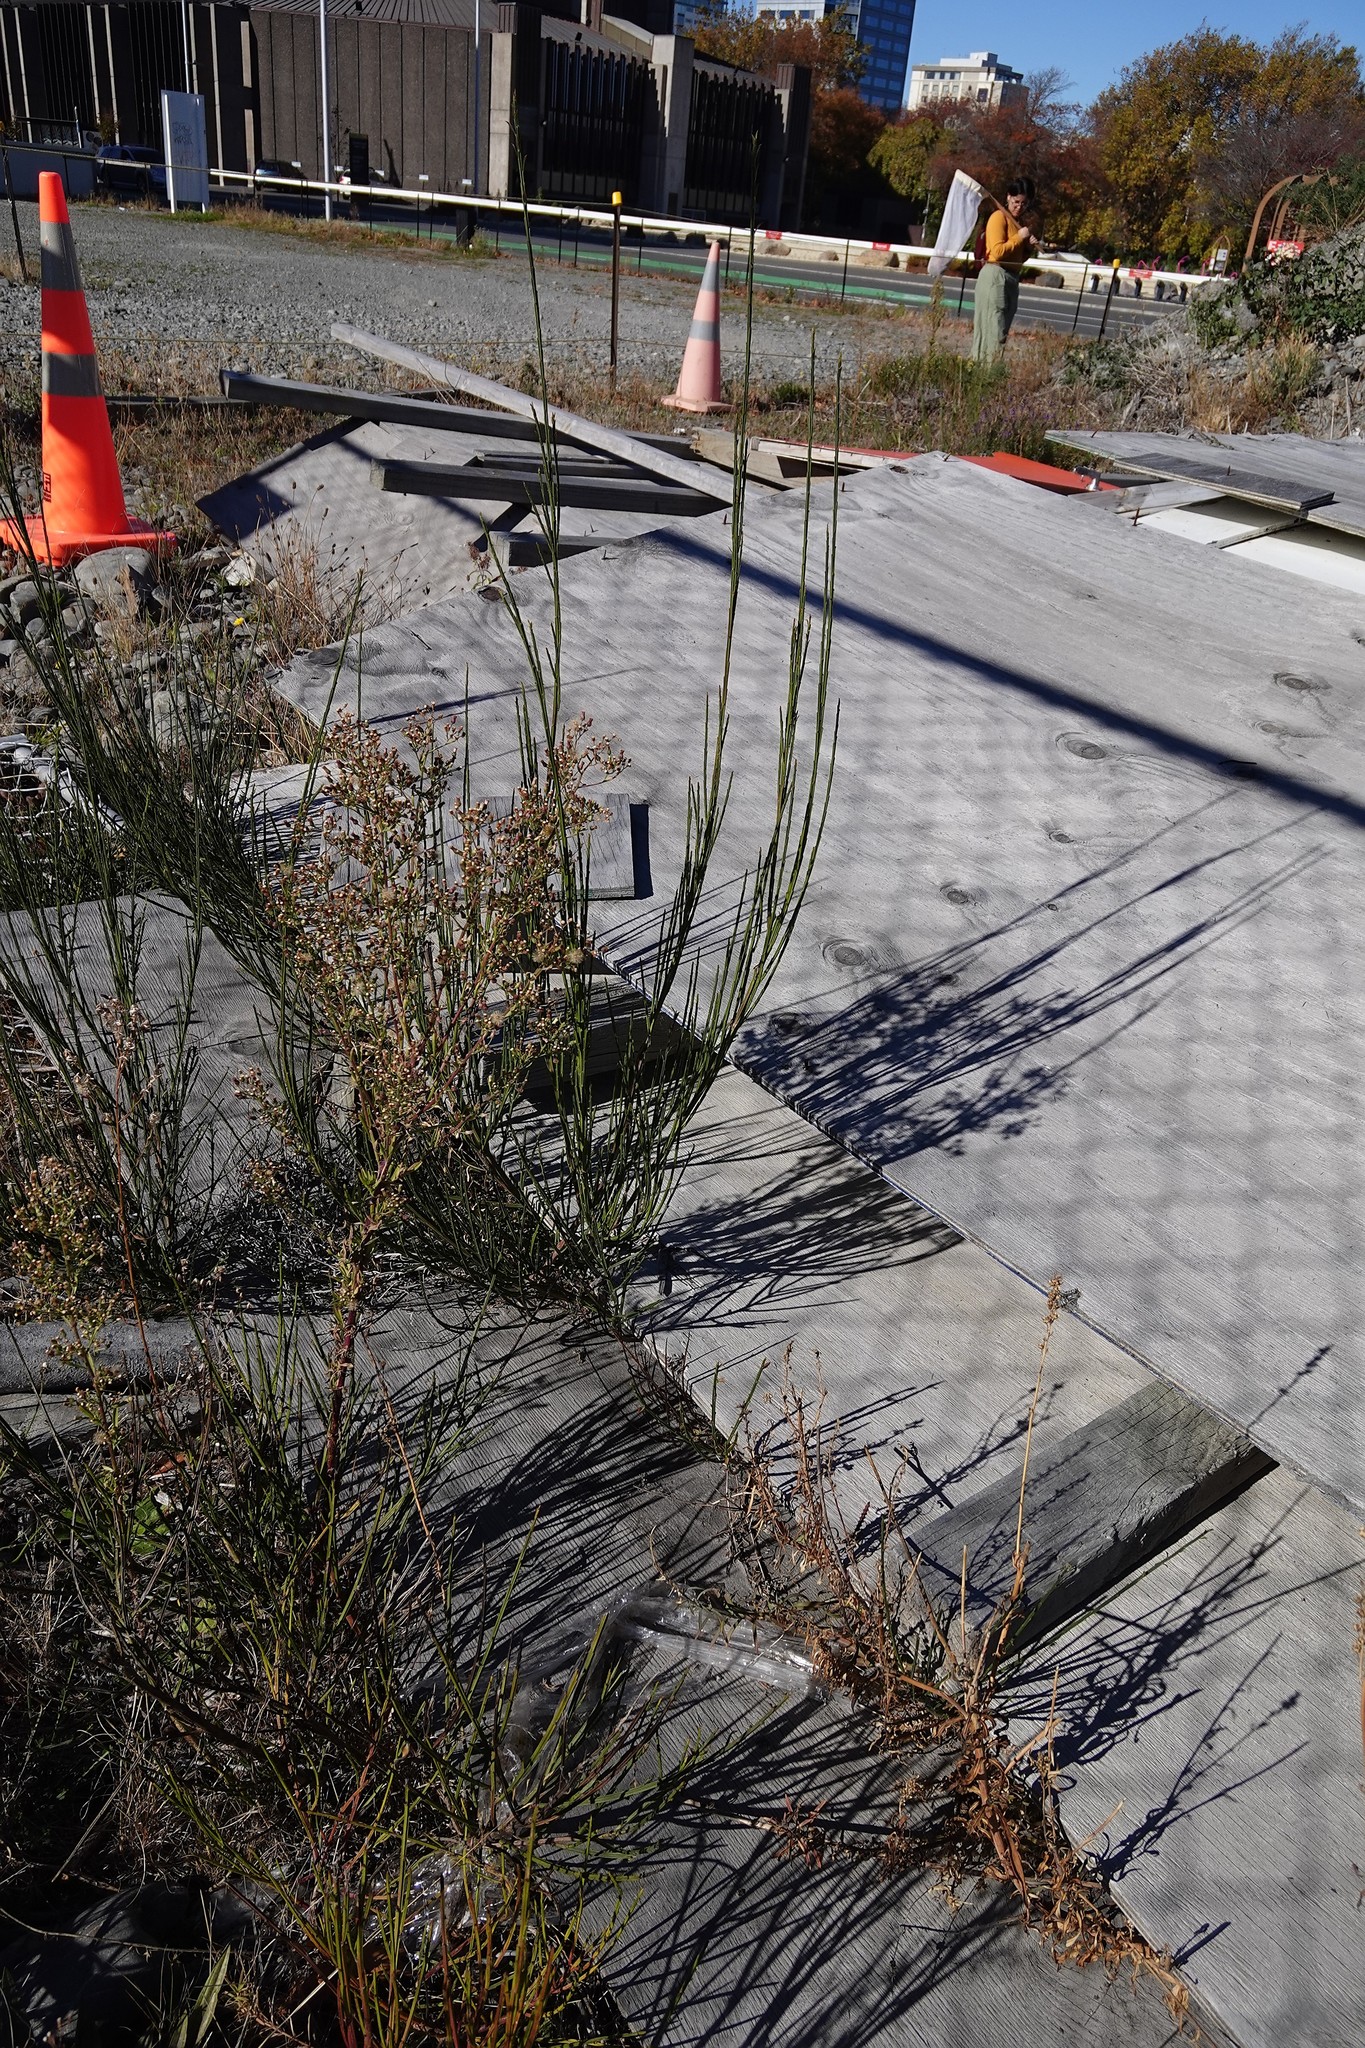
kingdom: Plantae
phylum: Tracheophyta
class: Magnoliopsida
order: Fabales
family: Fabaceae
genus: Cytisus
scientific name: Cytisus scoparius
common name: Scotch broom
